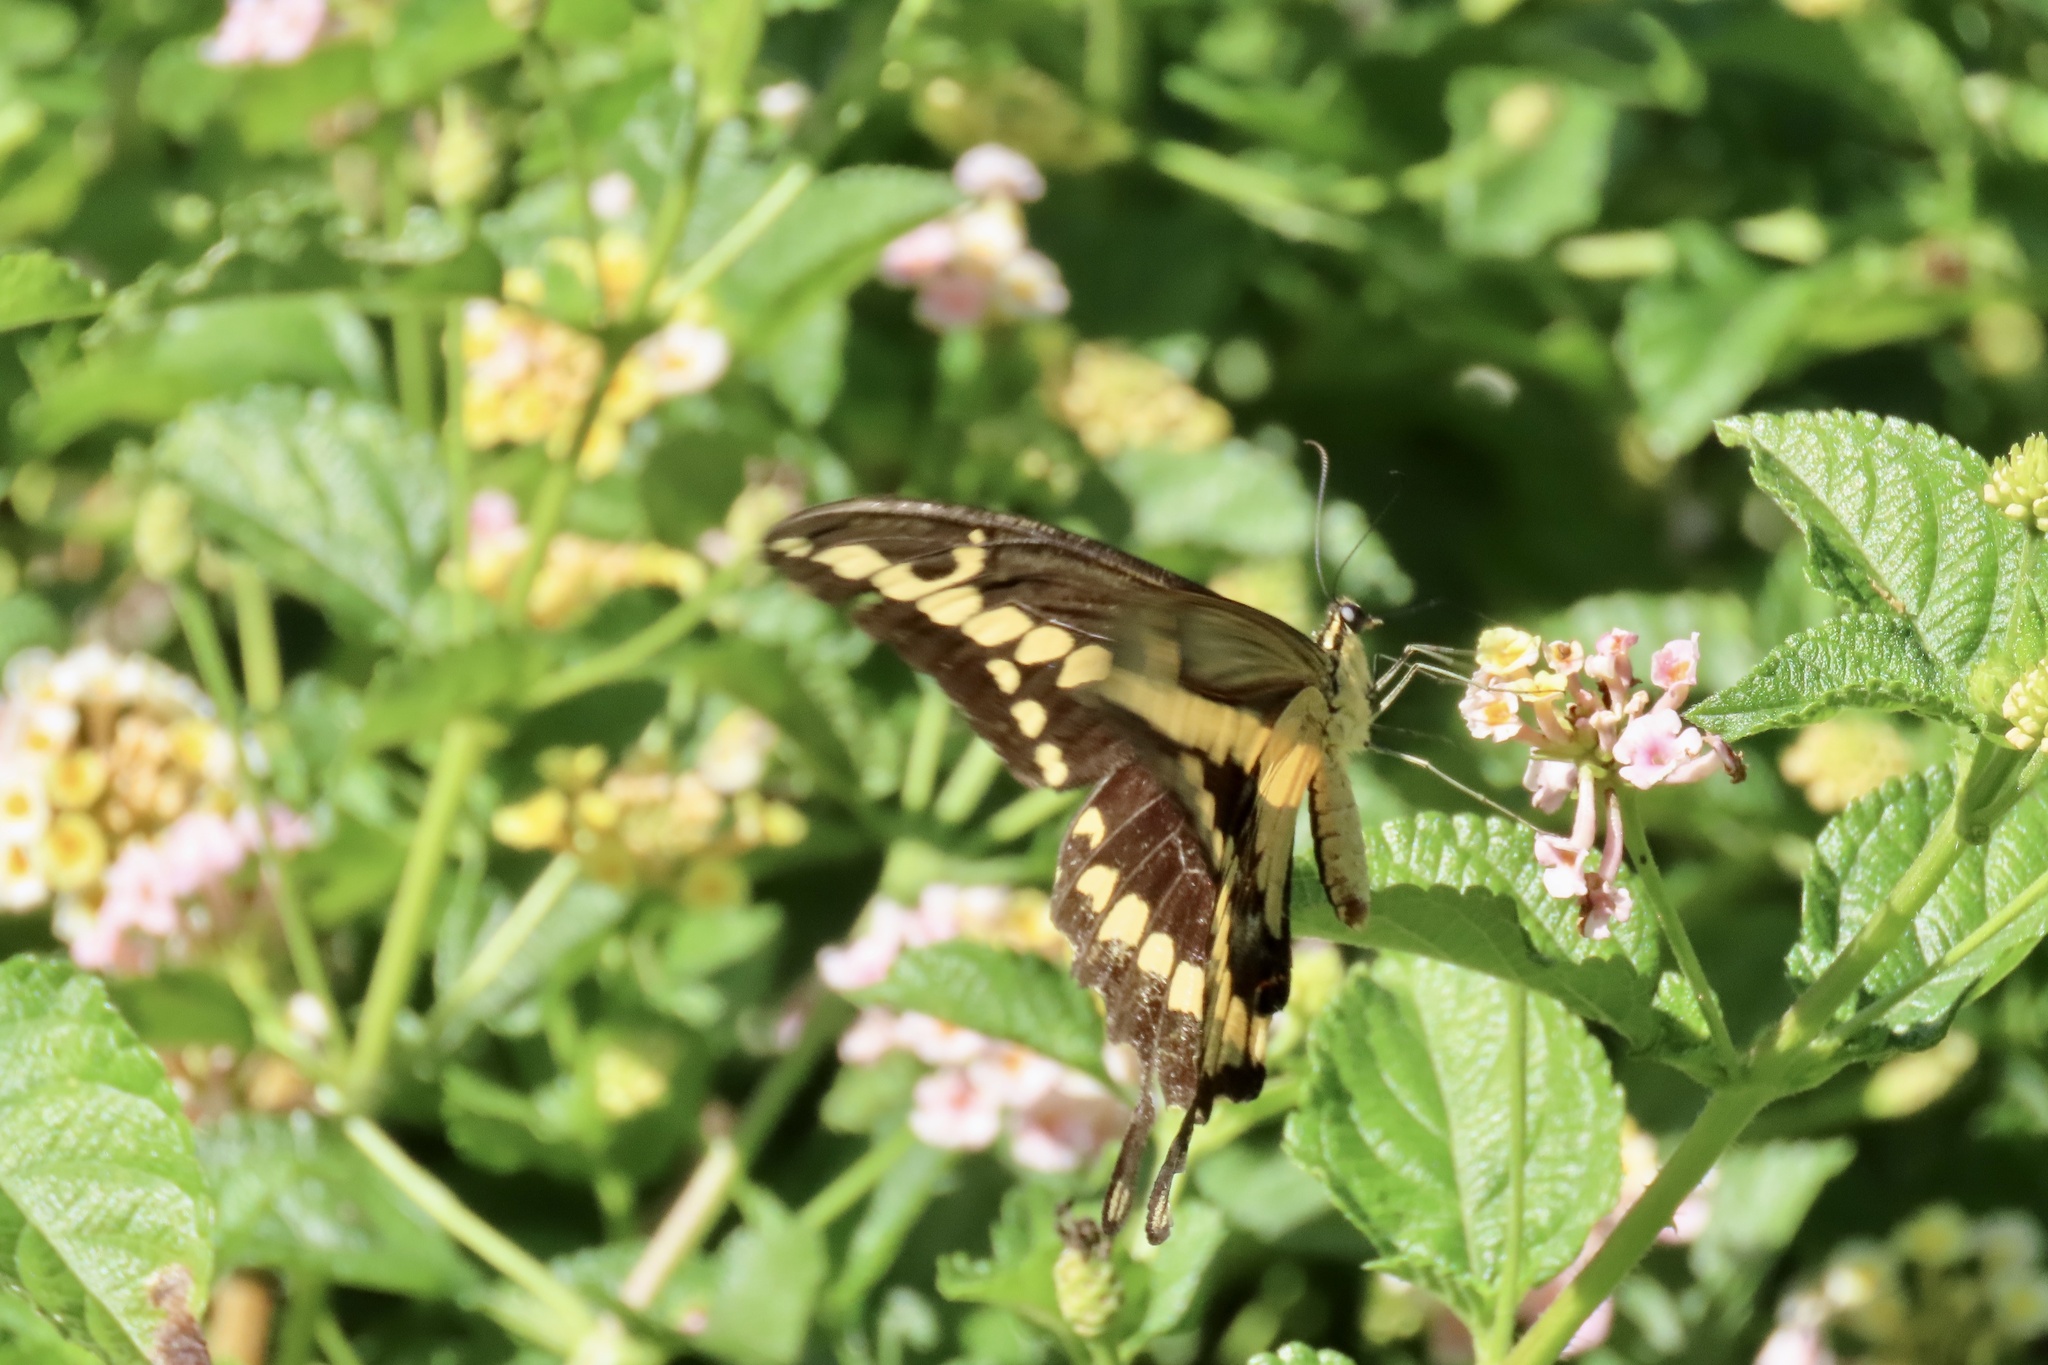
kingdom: Animalia
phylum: Arthropoda
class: Insecta
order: Lepidoptera
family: Papilionidae
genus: Papilio
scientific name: Papilio rumiko
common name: Western giant swallowtail
